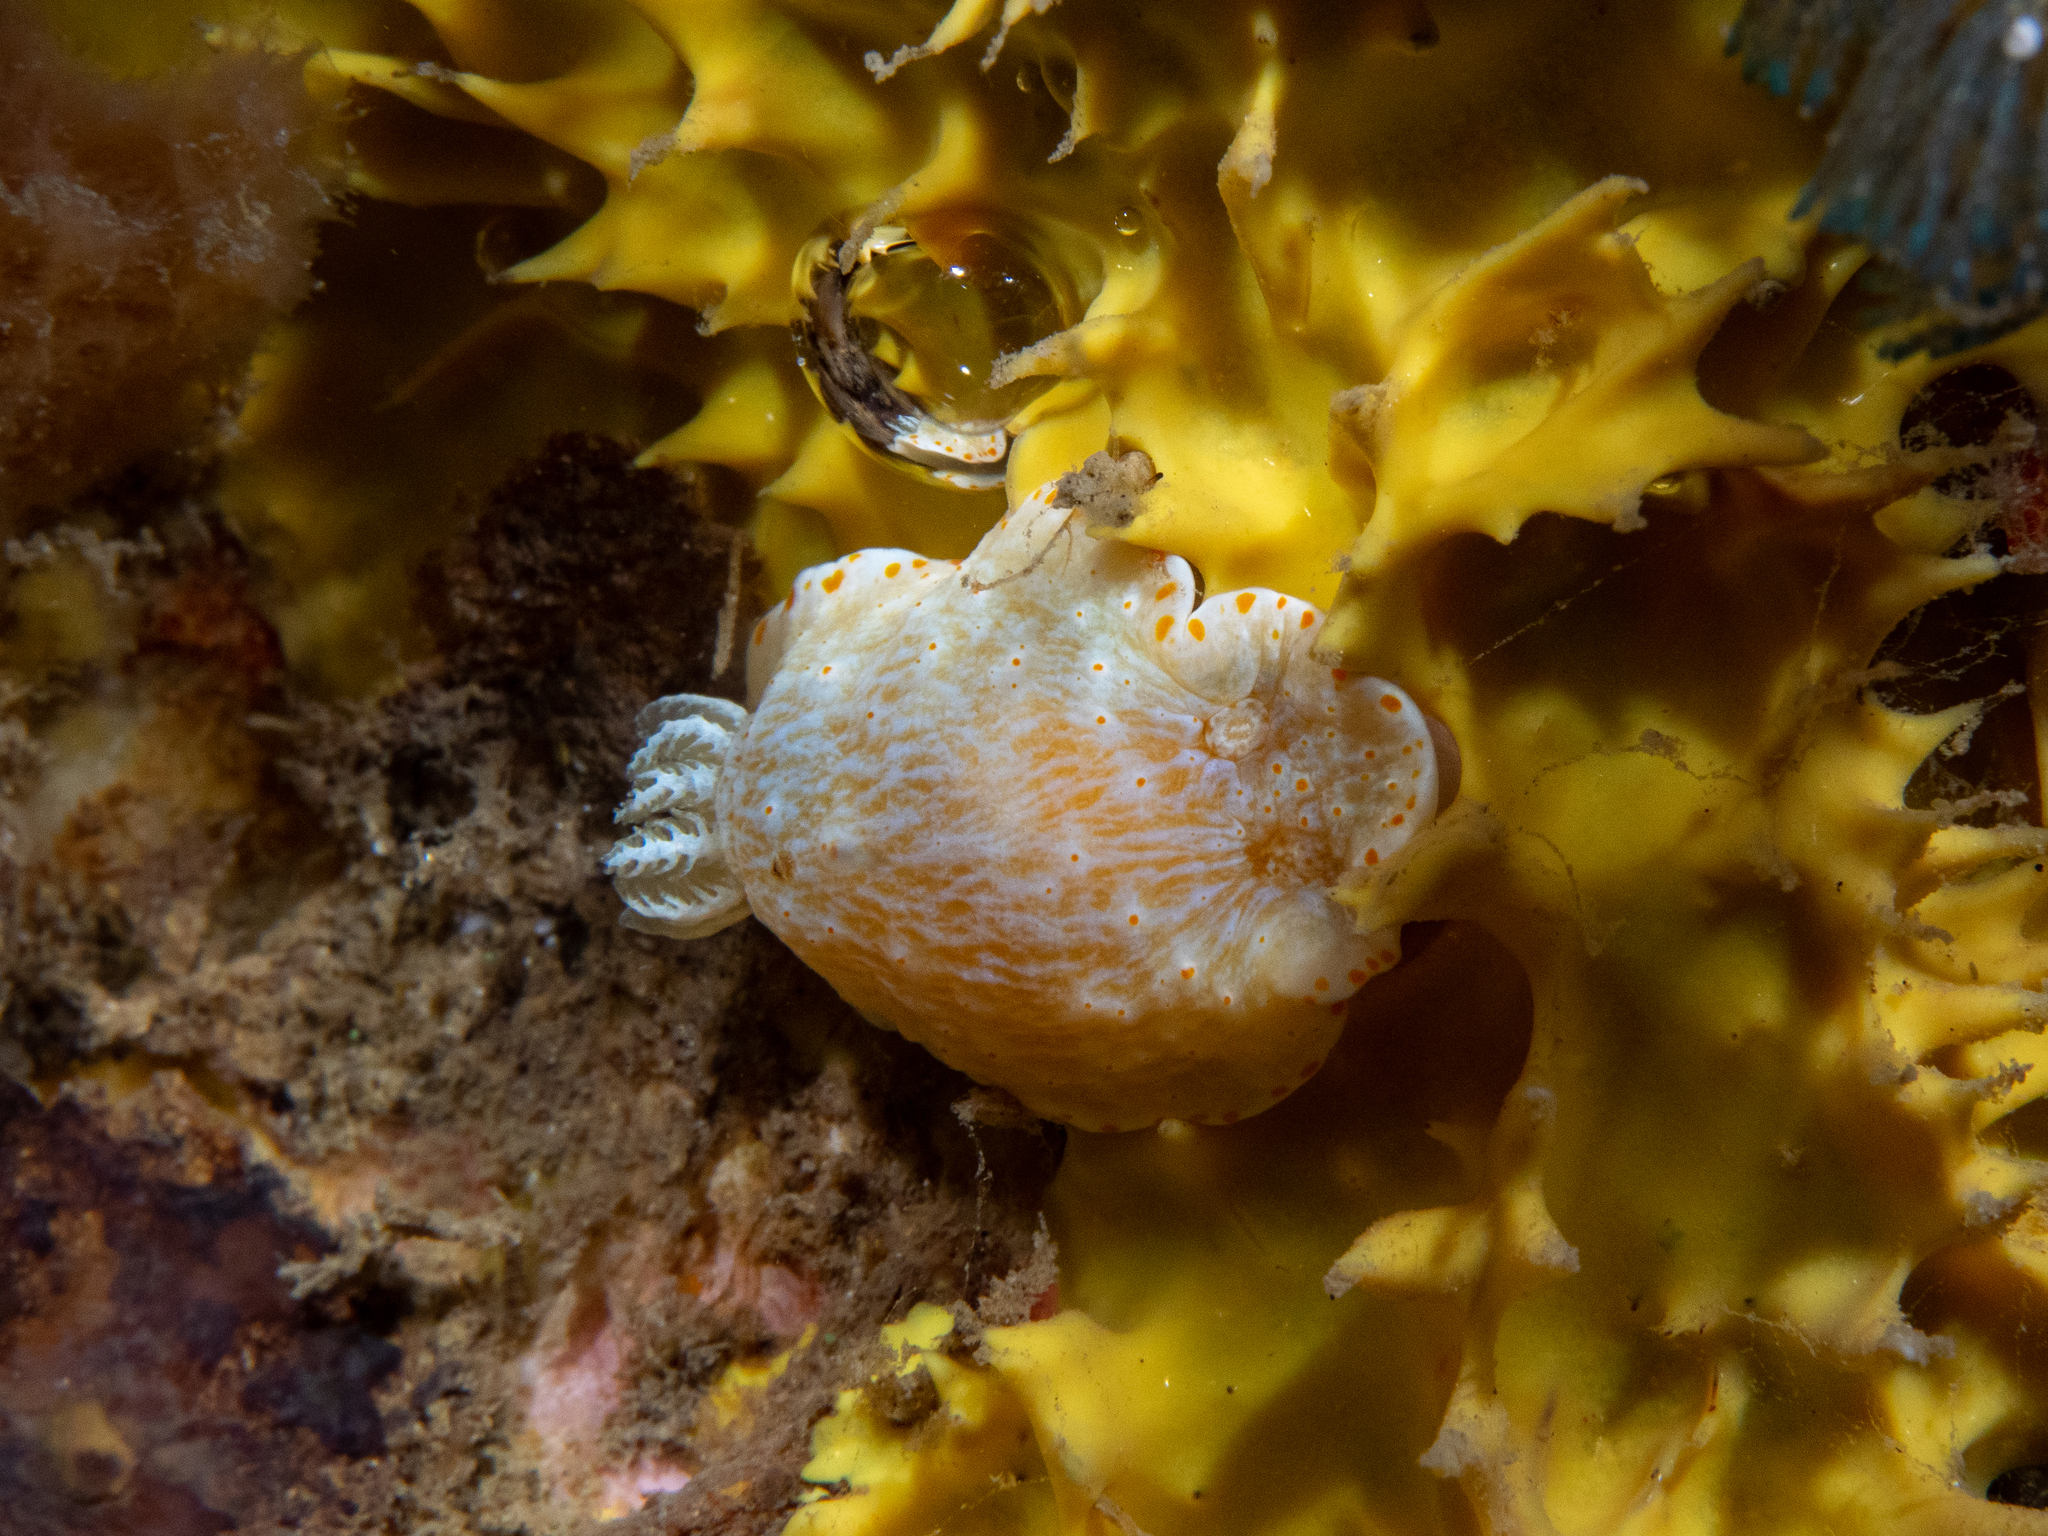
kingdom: Animalia
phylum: Mollusca
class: Gastropoda
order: Nudibranchia
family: Chromodorididae
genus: Goniobranchus
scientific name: Goniobranchus epicurius
